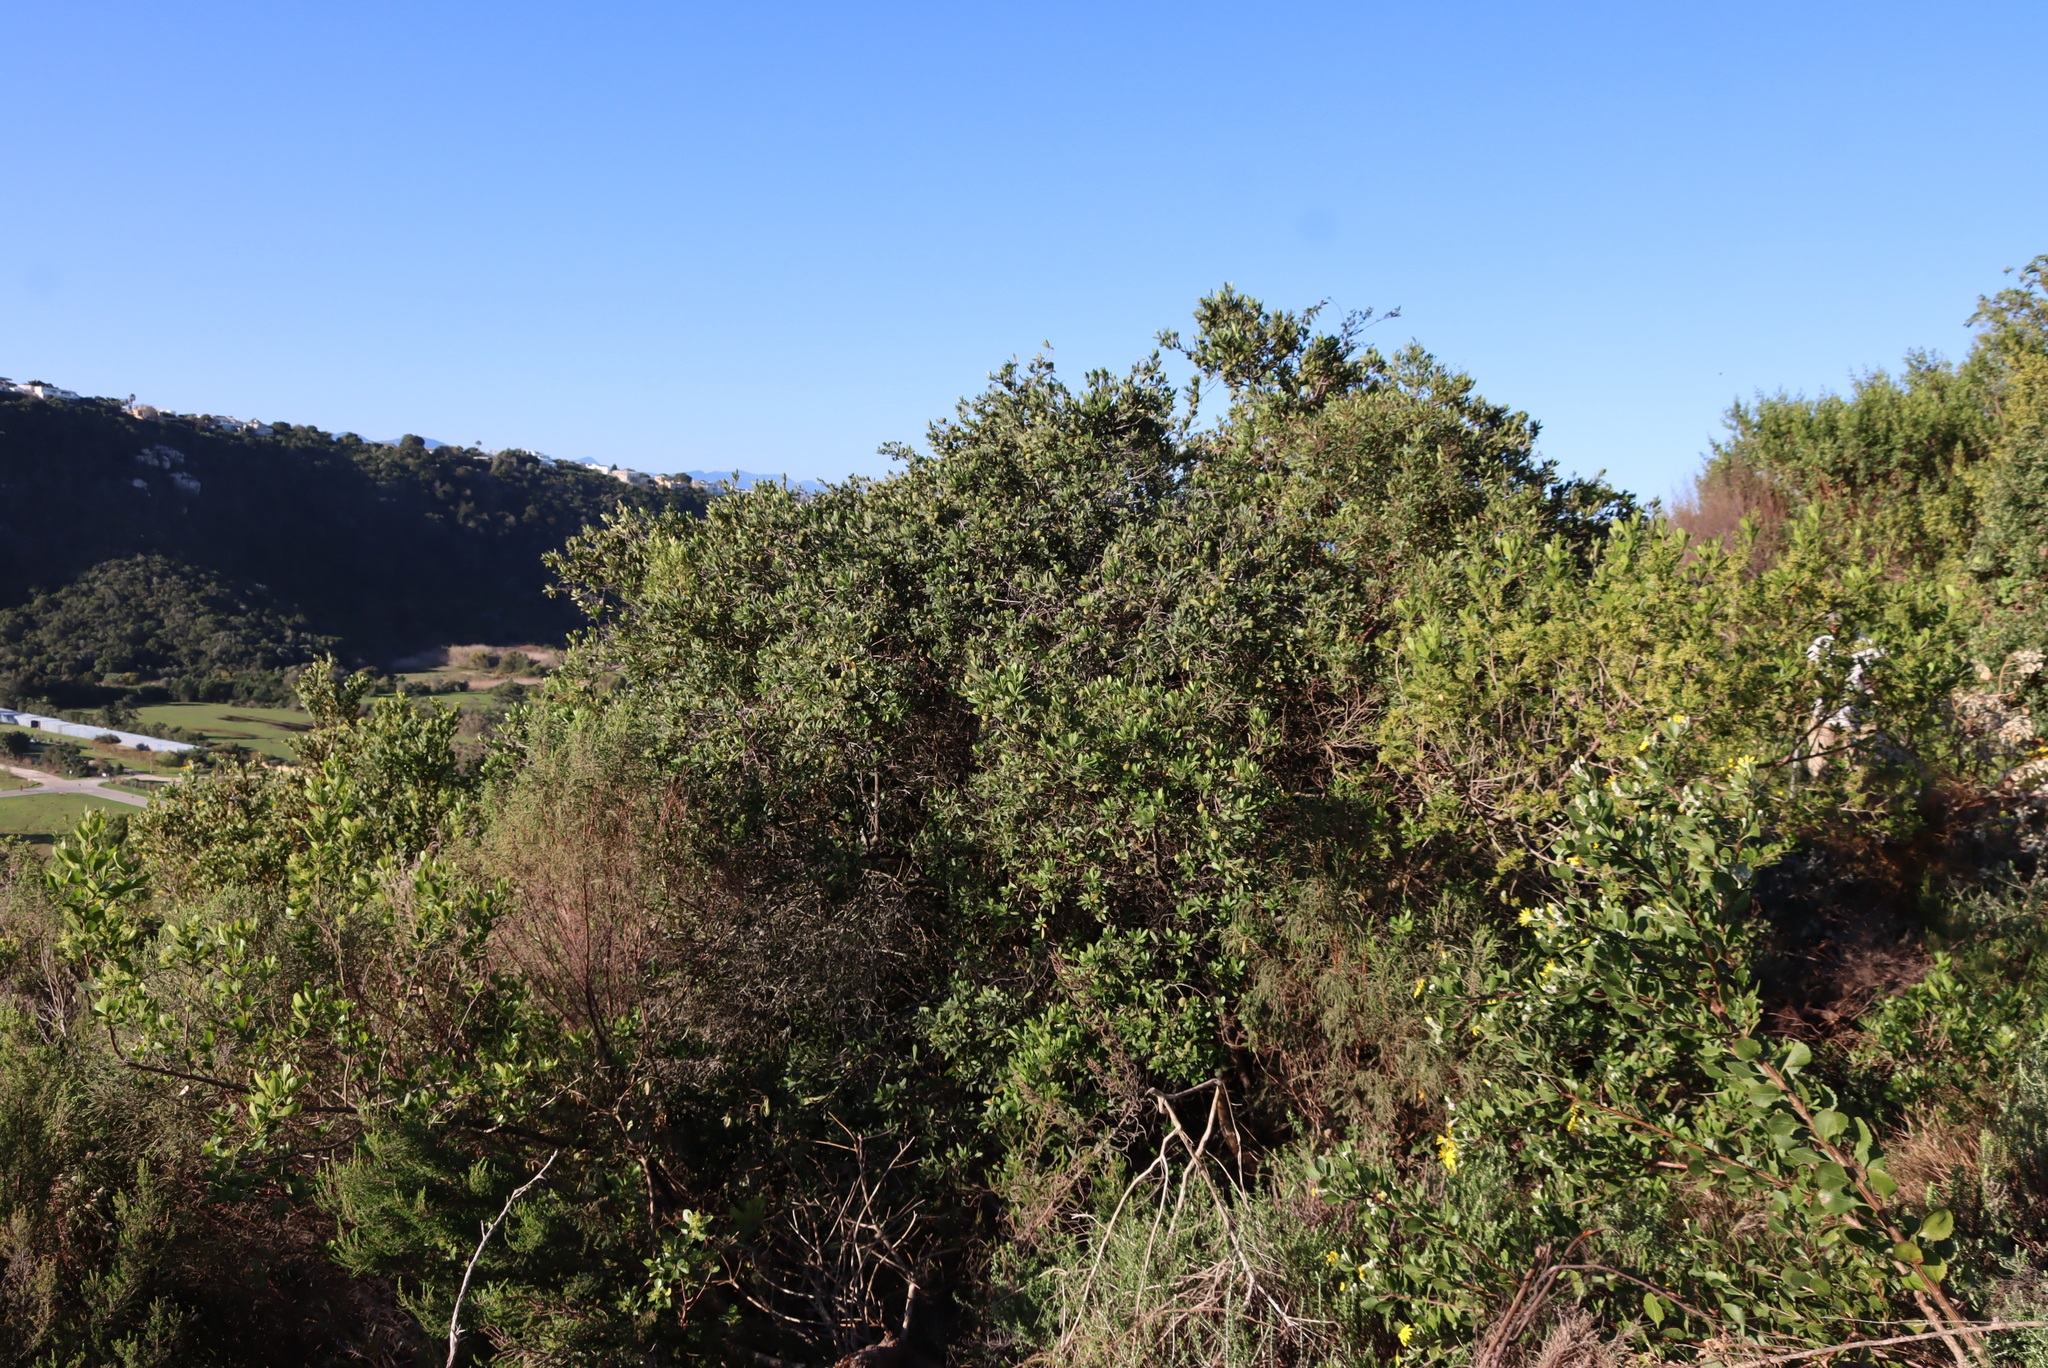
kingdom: Plantae
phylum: Tracheophyta
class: Magnoliopsida
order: Ericales
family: Ebenaceae
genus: Diospyros
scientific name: Diospyros dichrophylla
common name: Common star-apple
